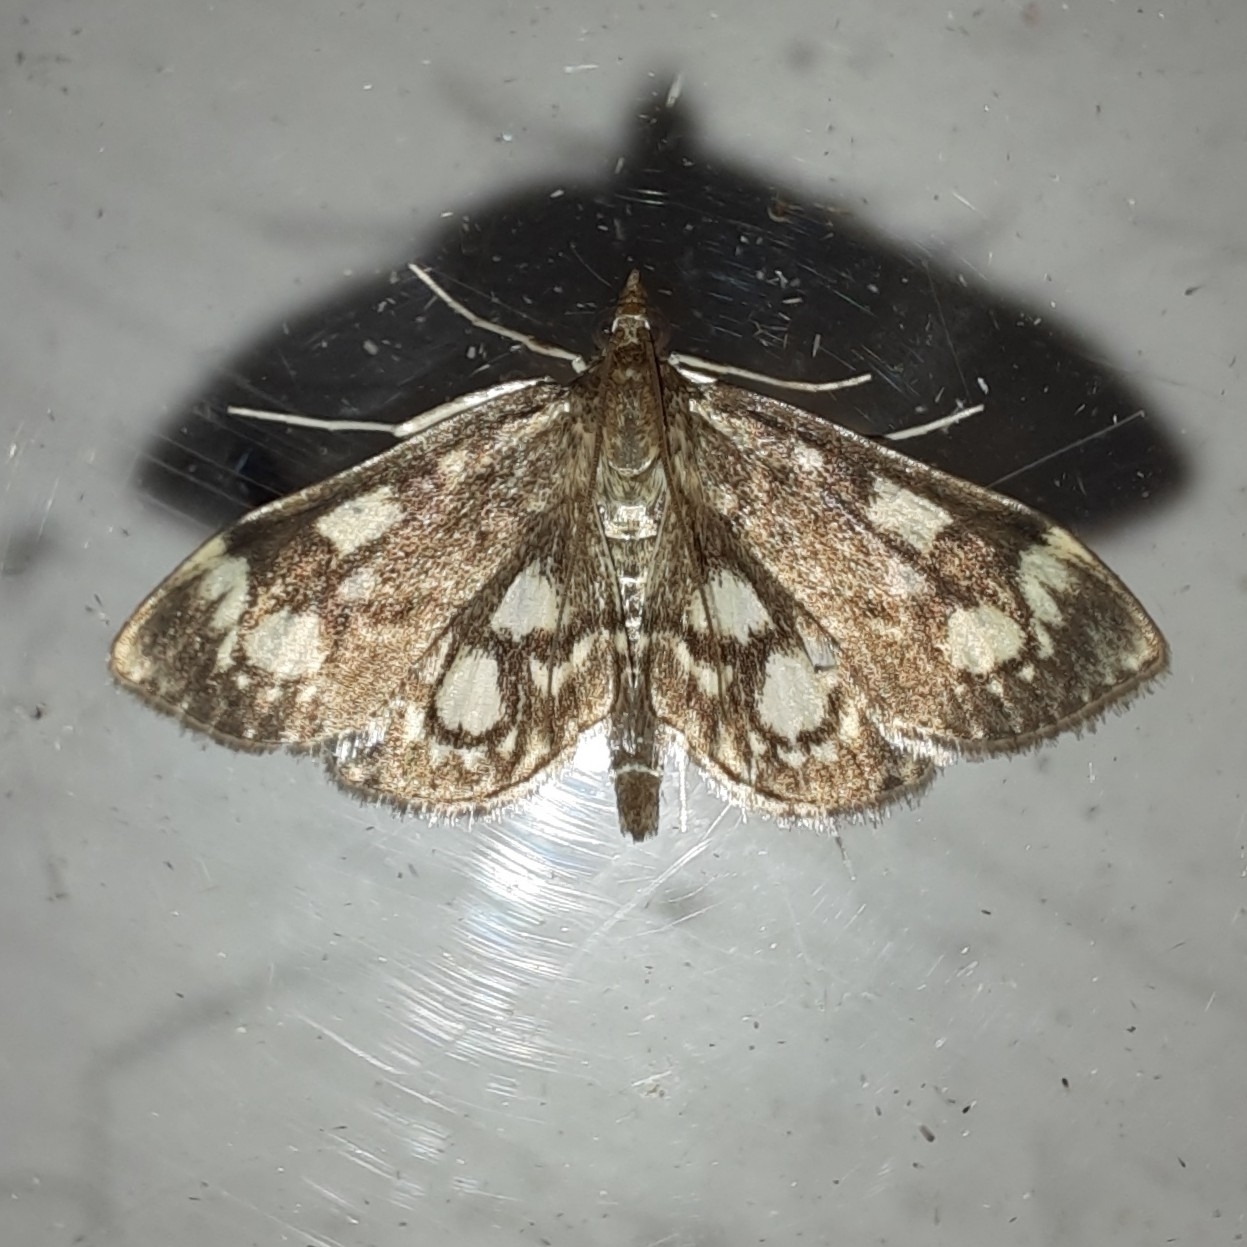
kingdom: Animalia
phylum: Arthropoda
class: Insecta
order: Lepidoptera
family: Crambidae
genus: Anania
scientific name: Anania coronata
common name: Elder pearl
